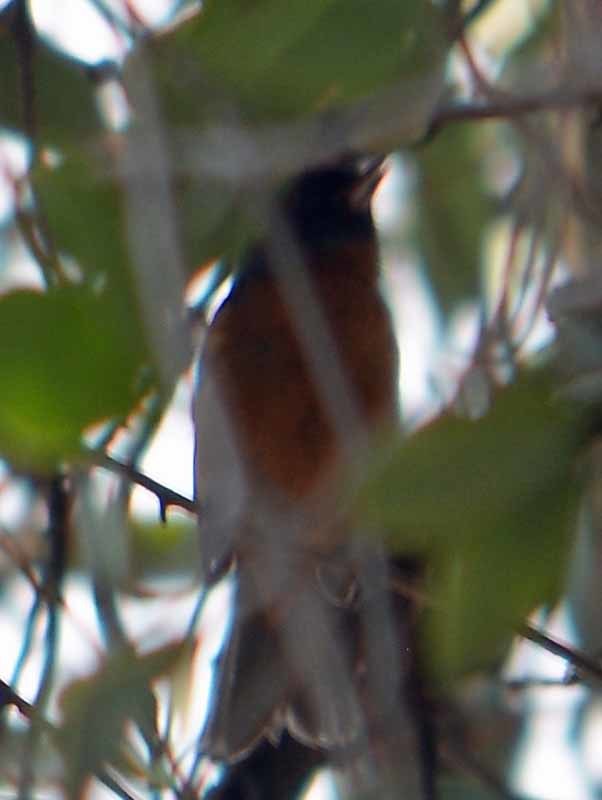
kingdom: Animalia
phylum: Chordata
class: Aves
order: Passeriformes
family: Thraupidae
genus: Diglossa
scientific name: Diglossa baritula
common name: Cinnamon-bellied flowerpiercer
